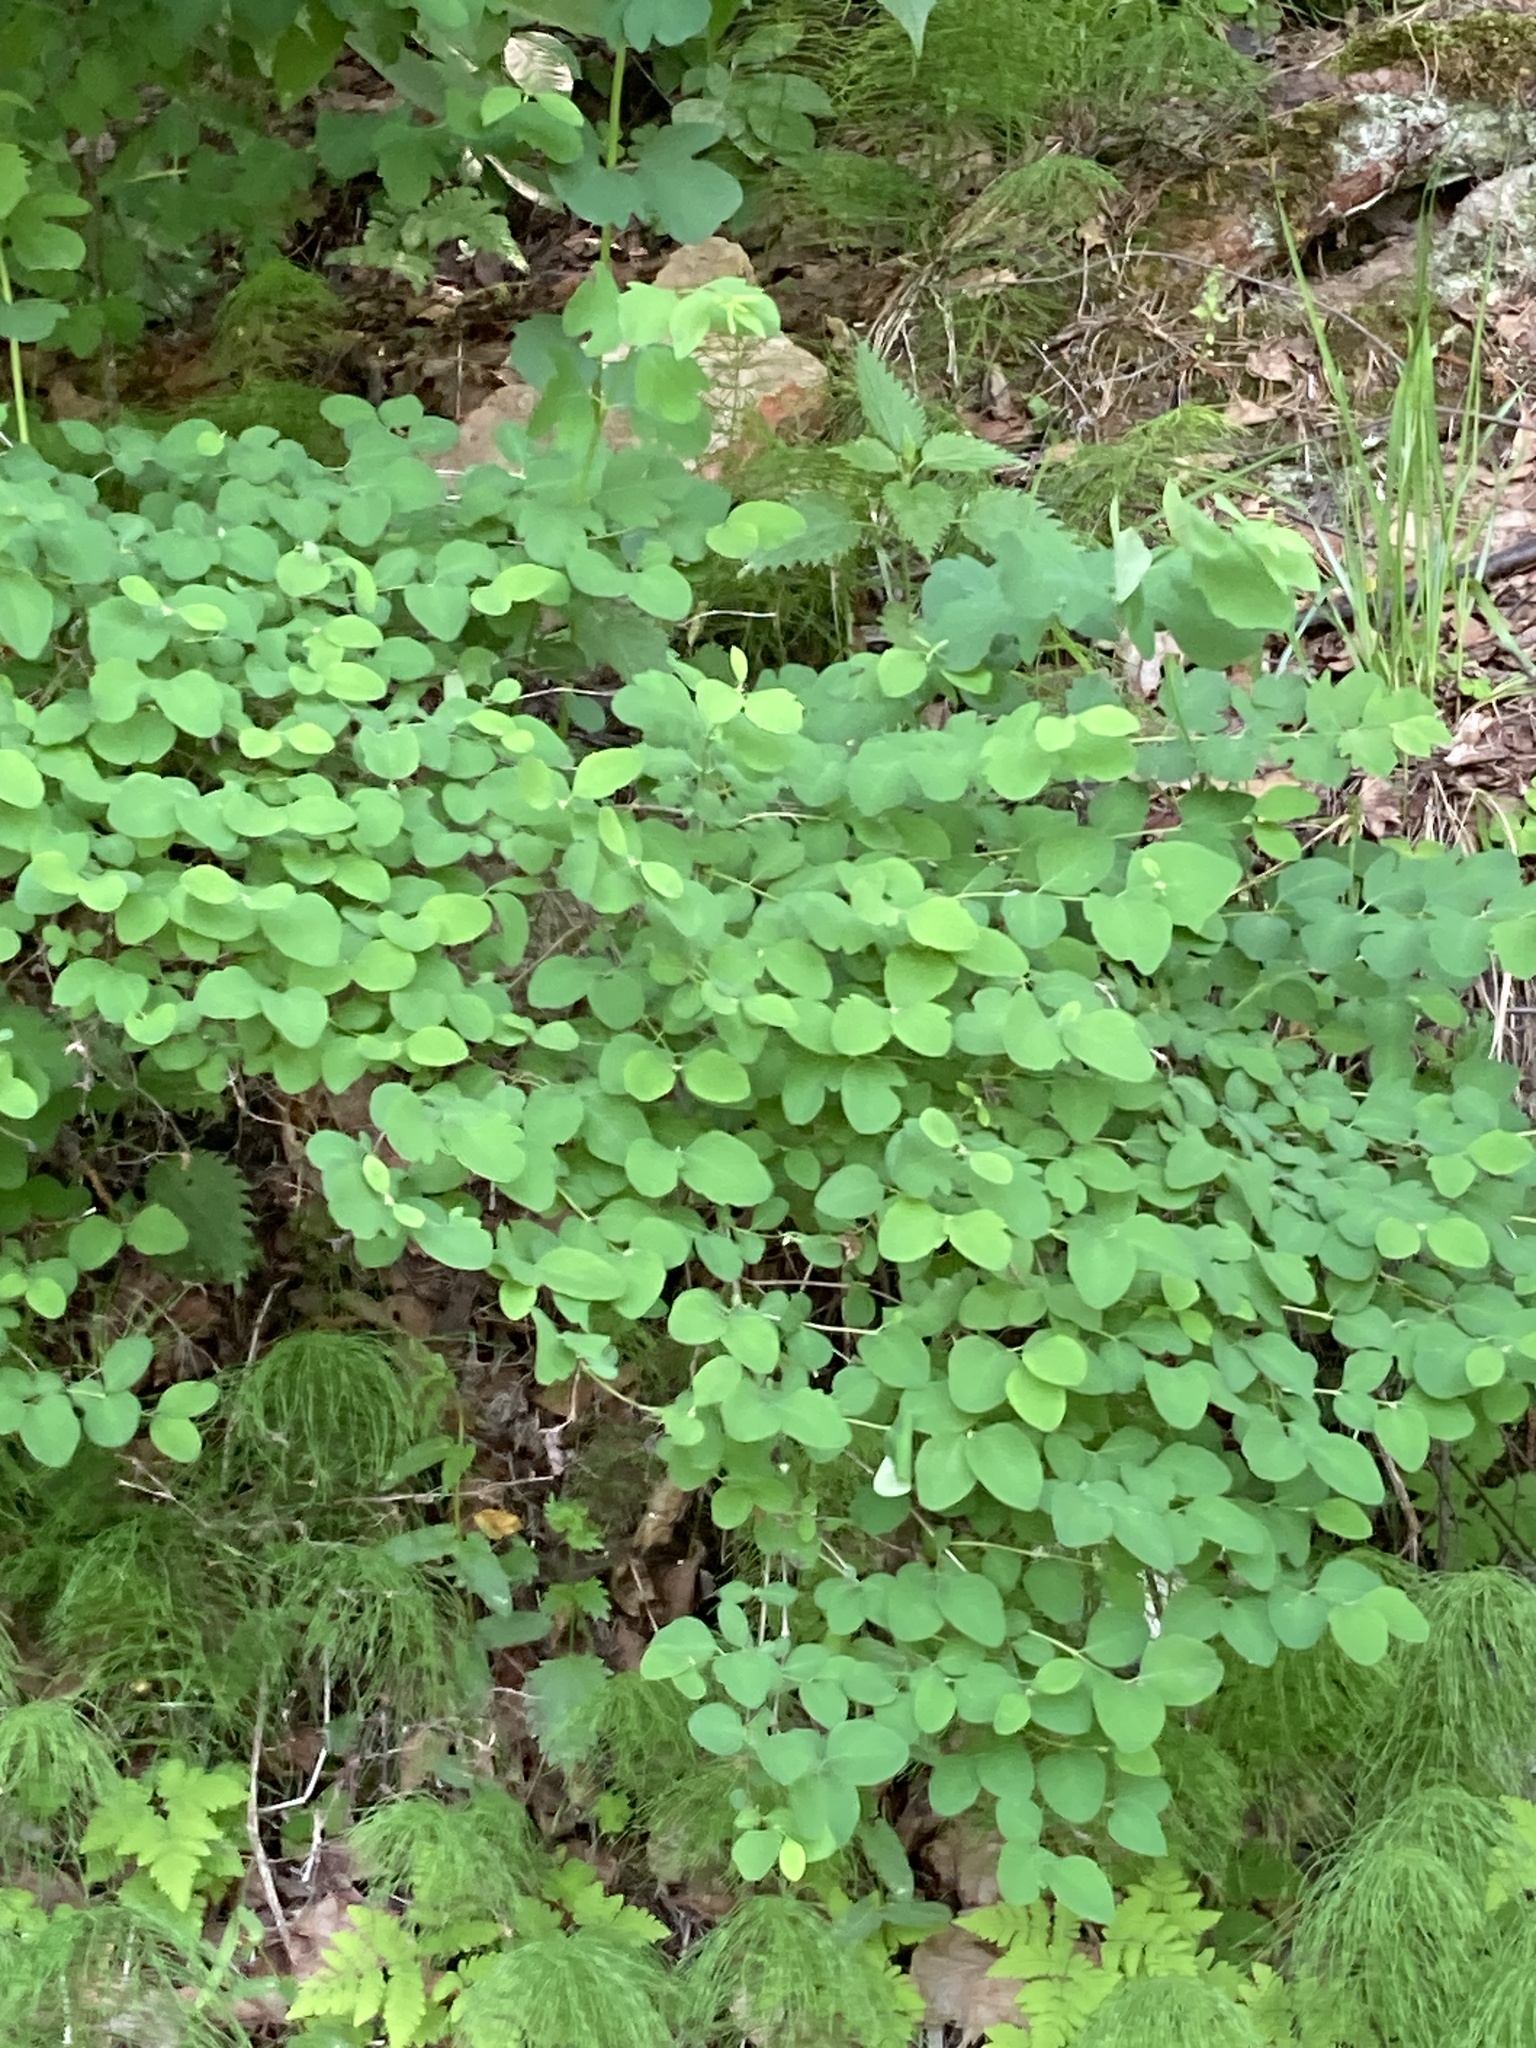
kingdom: Plantae
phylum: Tracheophyta
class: Magnoliopsida
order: Dipsacales
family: Caprifoliaceae
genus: Symphoricarpos
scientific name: Symphoricarpos albus
